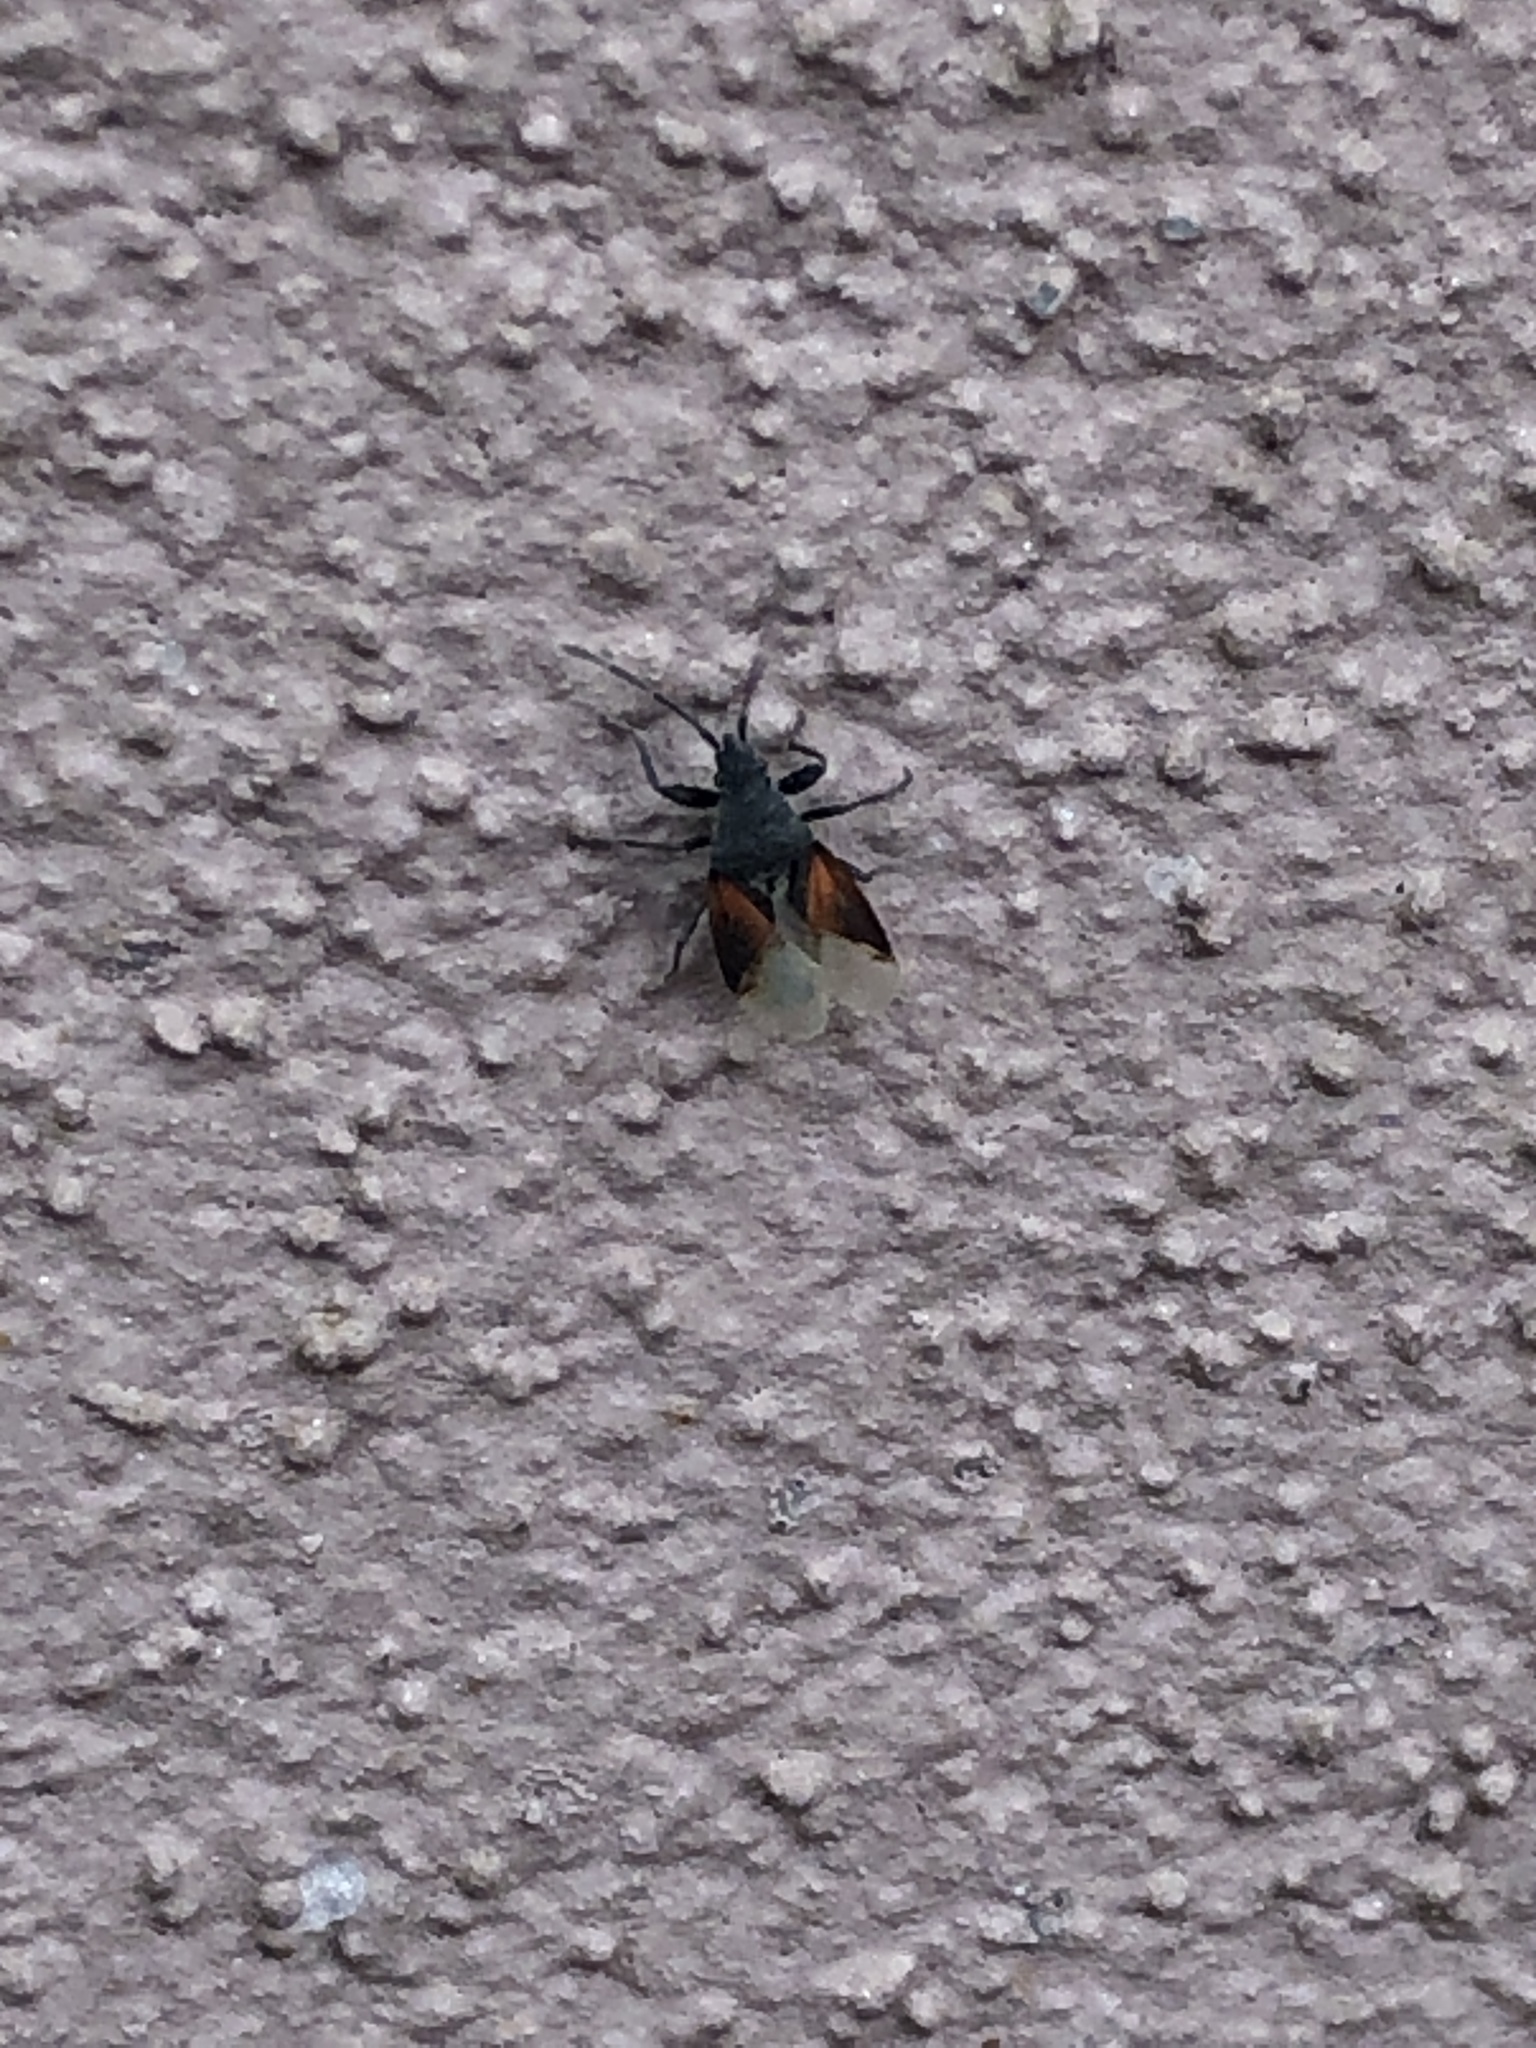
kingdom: Animalia
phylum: Arthropoda
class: Insecta
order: Hemiptera
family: Oxycarenidae
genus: Oxycarenus
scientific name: Oxycarenus lavaterae
